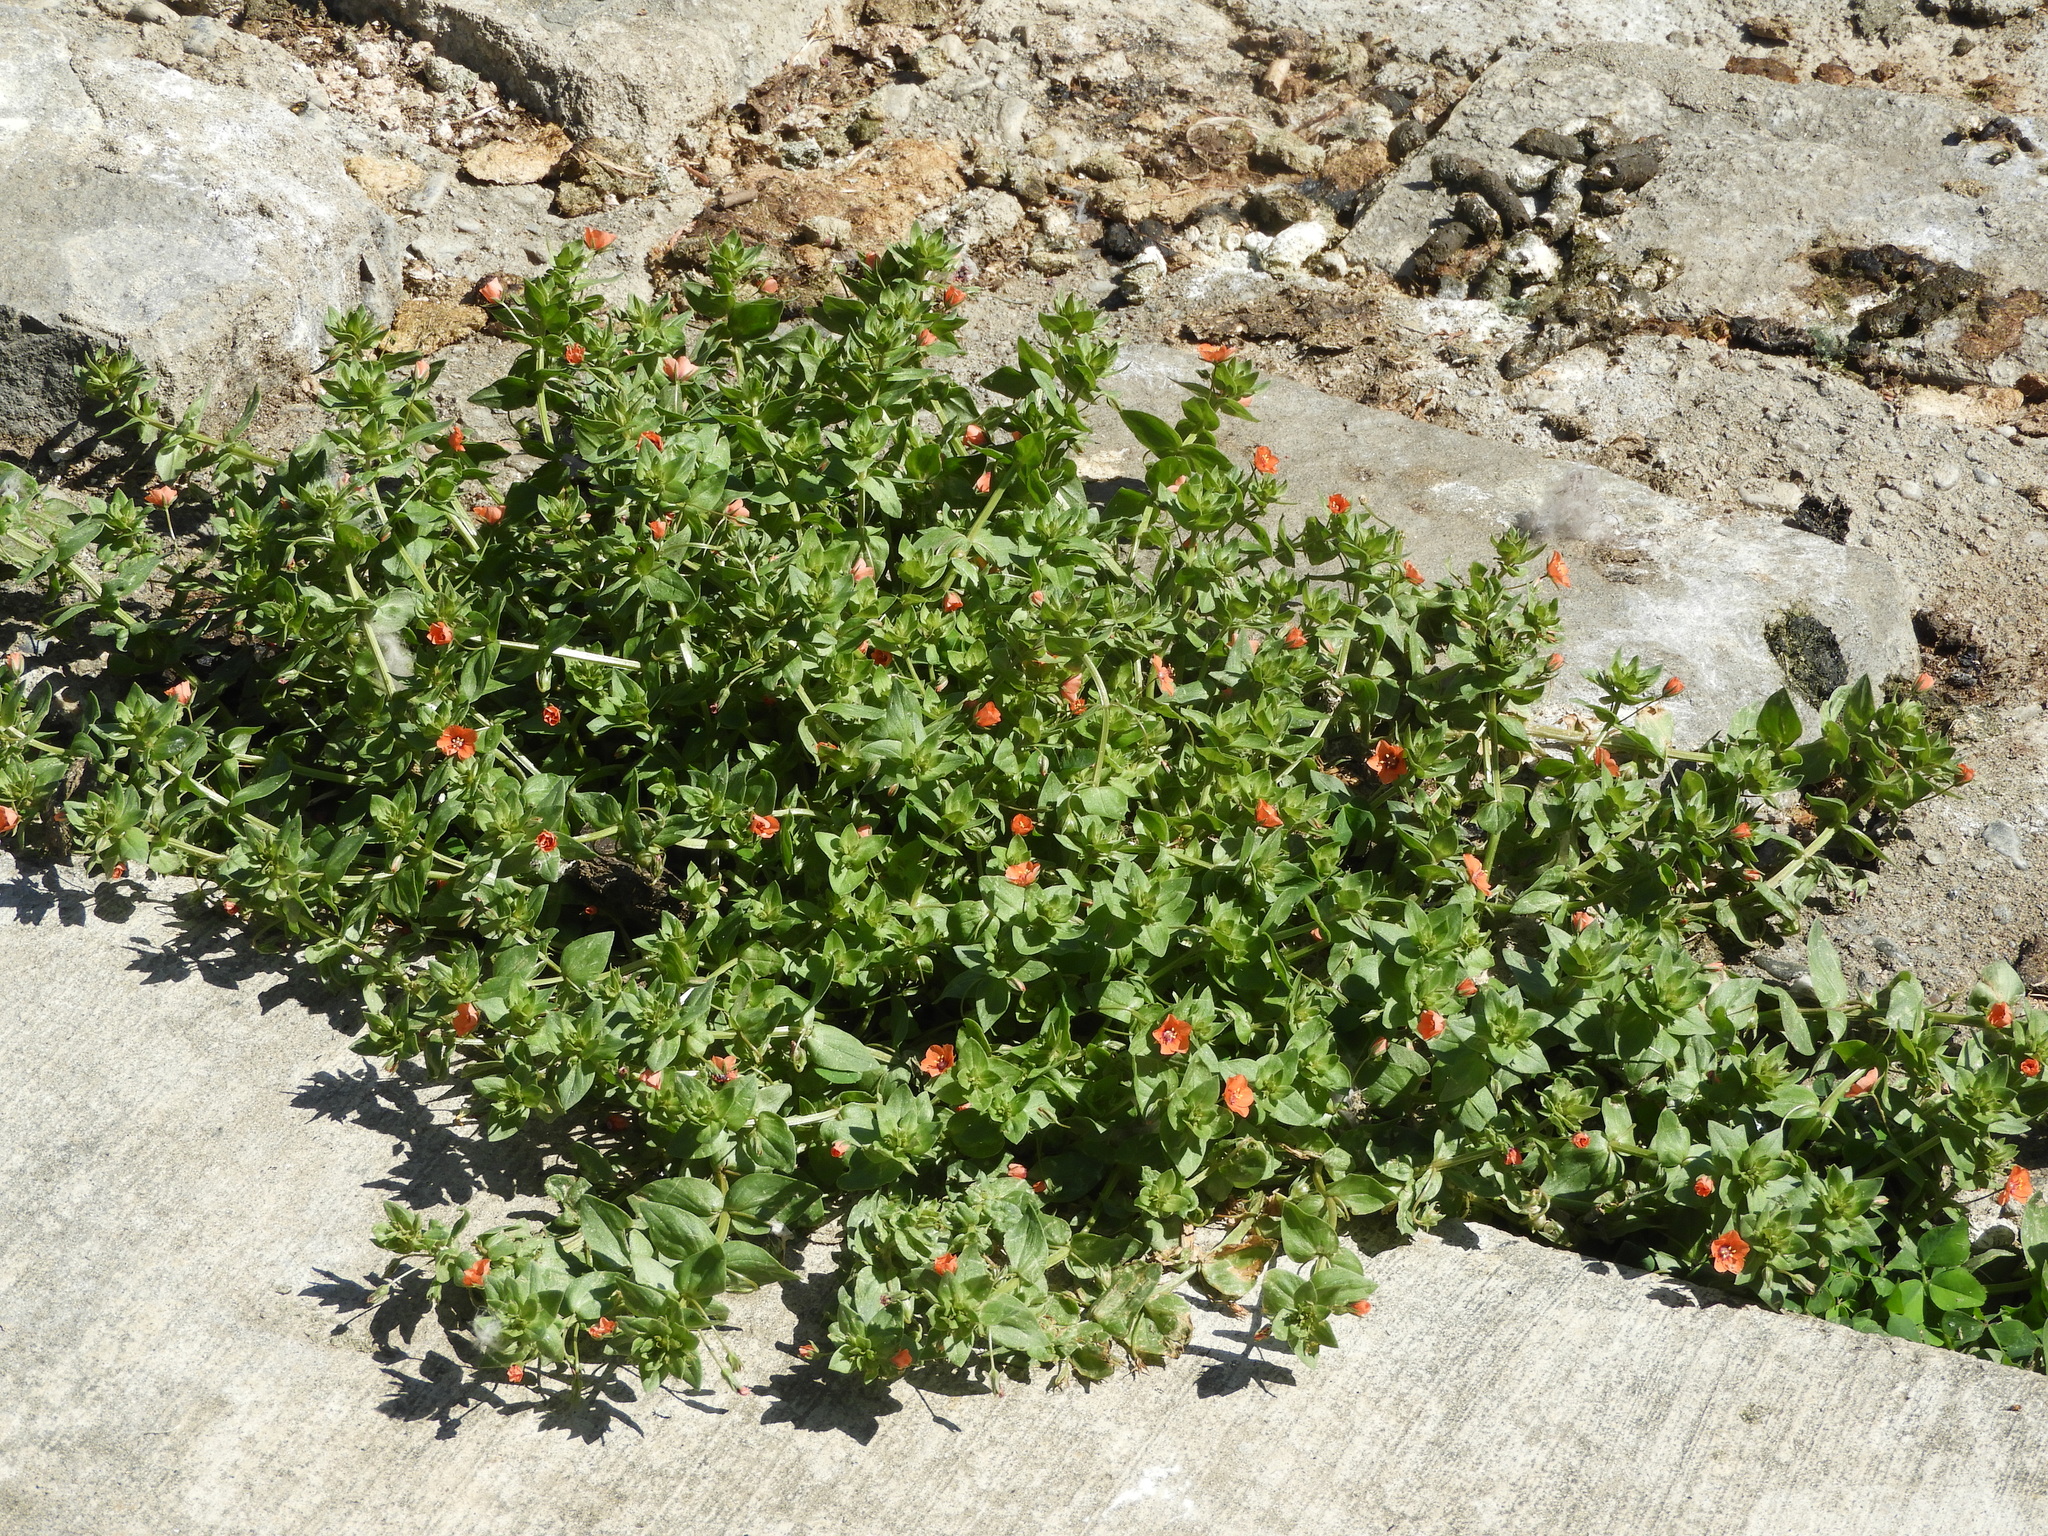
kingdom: Plantae
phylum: Tracheophyta
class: Magnoliopsida
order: Ericales
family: Primulaceae
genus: Lysimachia
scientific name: Lysimachia arvensis
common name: Scarlet pimpernel
